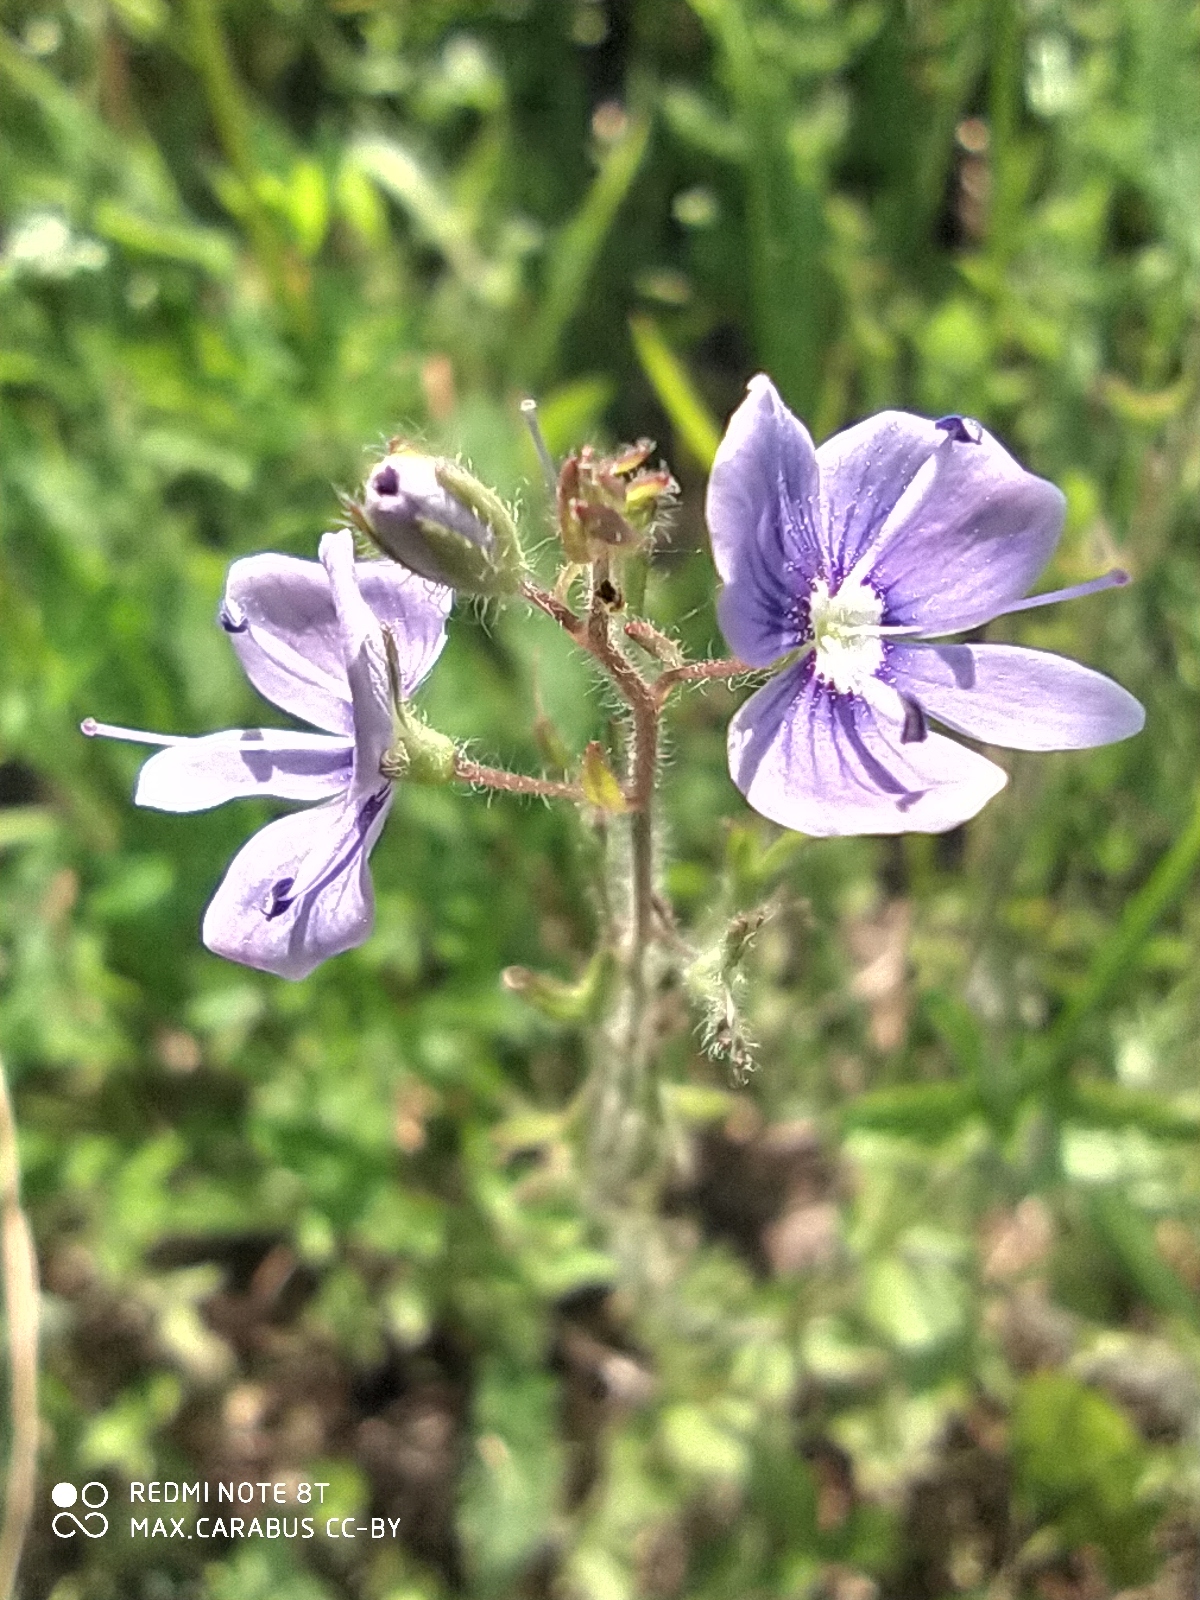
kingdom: Plantae
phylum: Tracheophyta
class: Magnoliopsida
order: Lamiales
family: Plantaginaceae
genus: Veronica
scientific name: Veronica chamaedrys
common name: Germander speedwell
